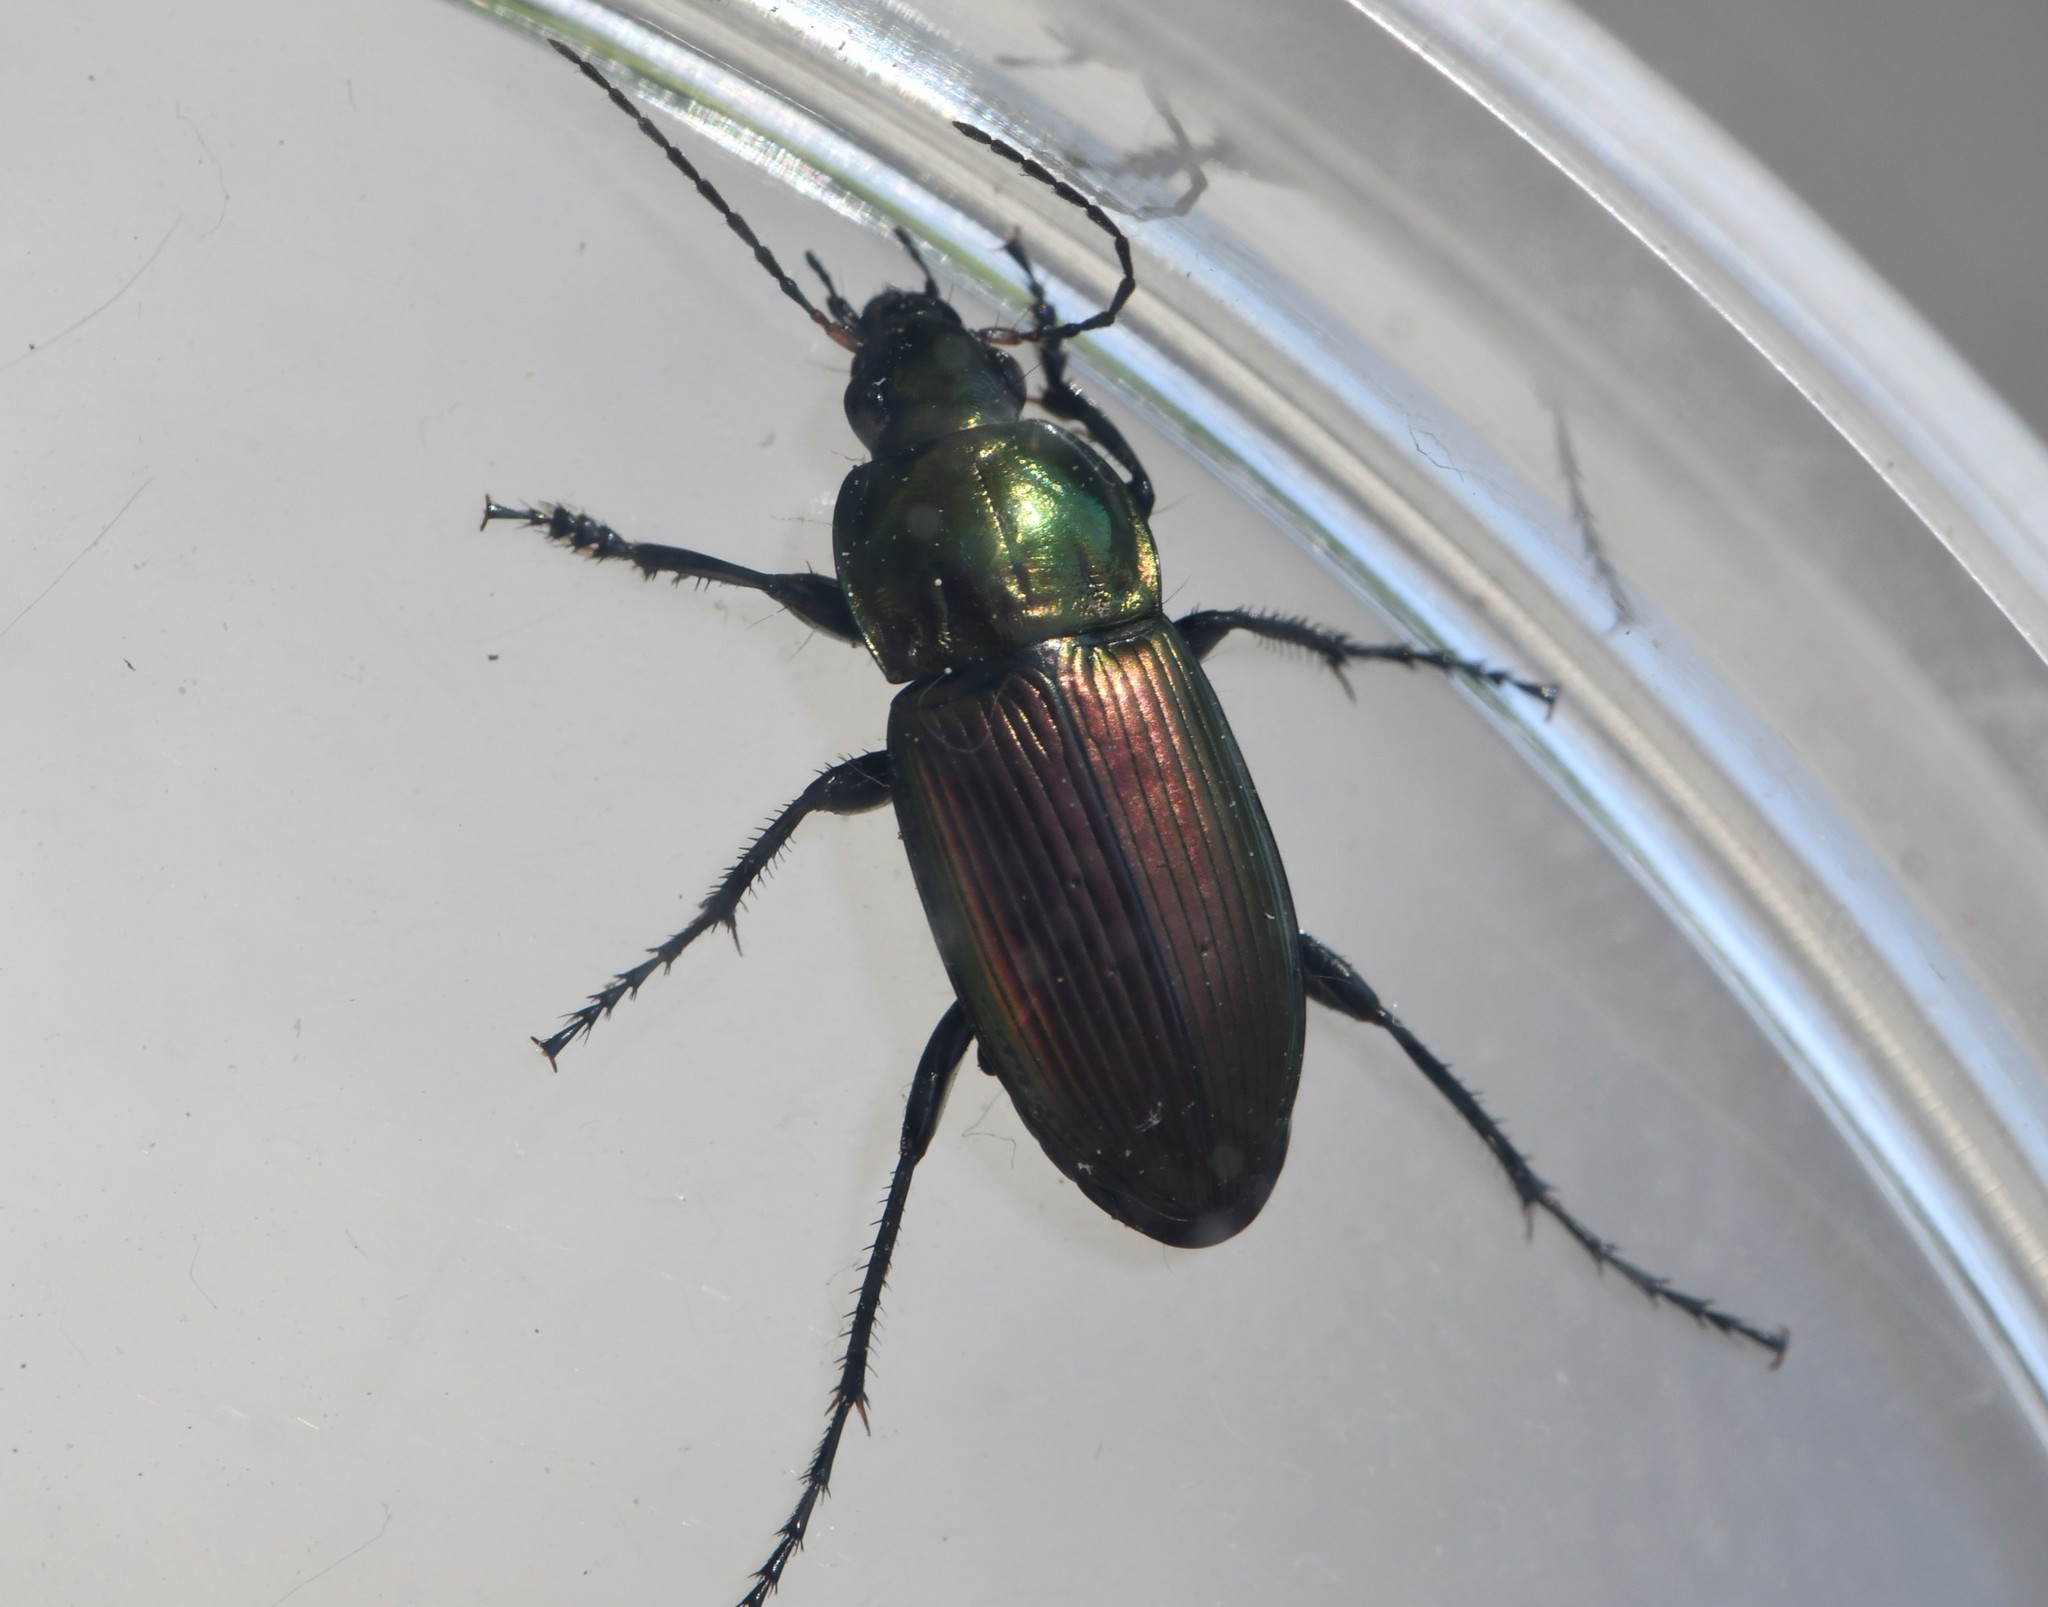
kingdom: Animalia
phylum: Arthropoda
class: Insecta
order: Coleoptera
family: Carabidae
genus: Poecilus
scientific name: Poecilus versicolor
